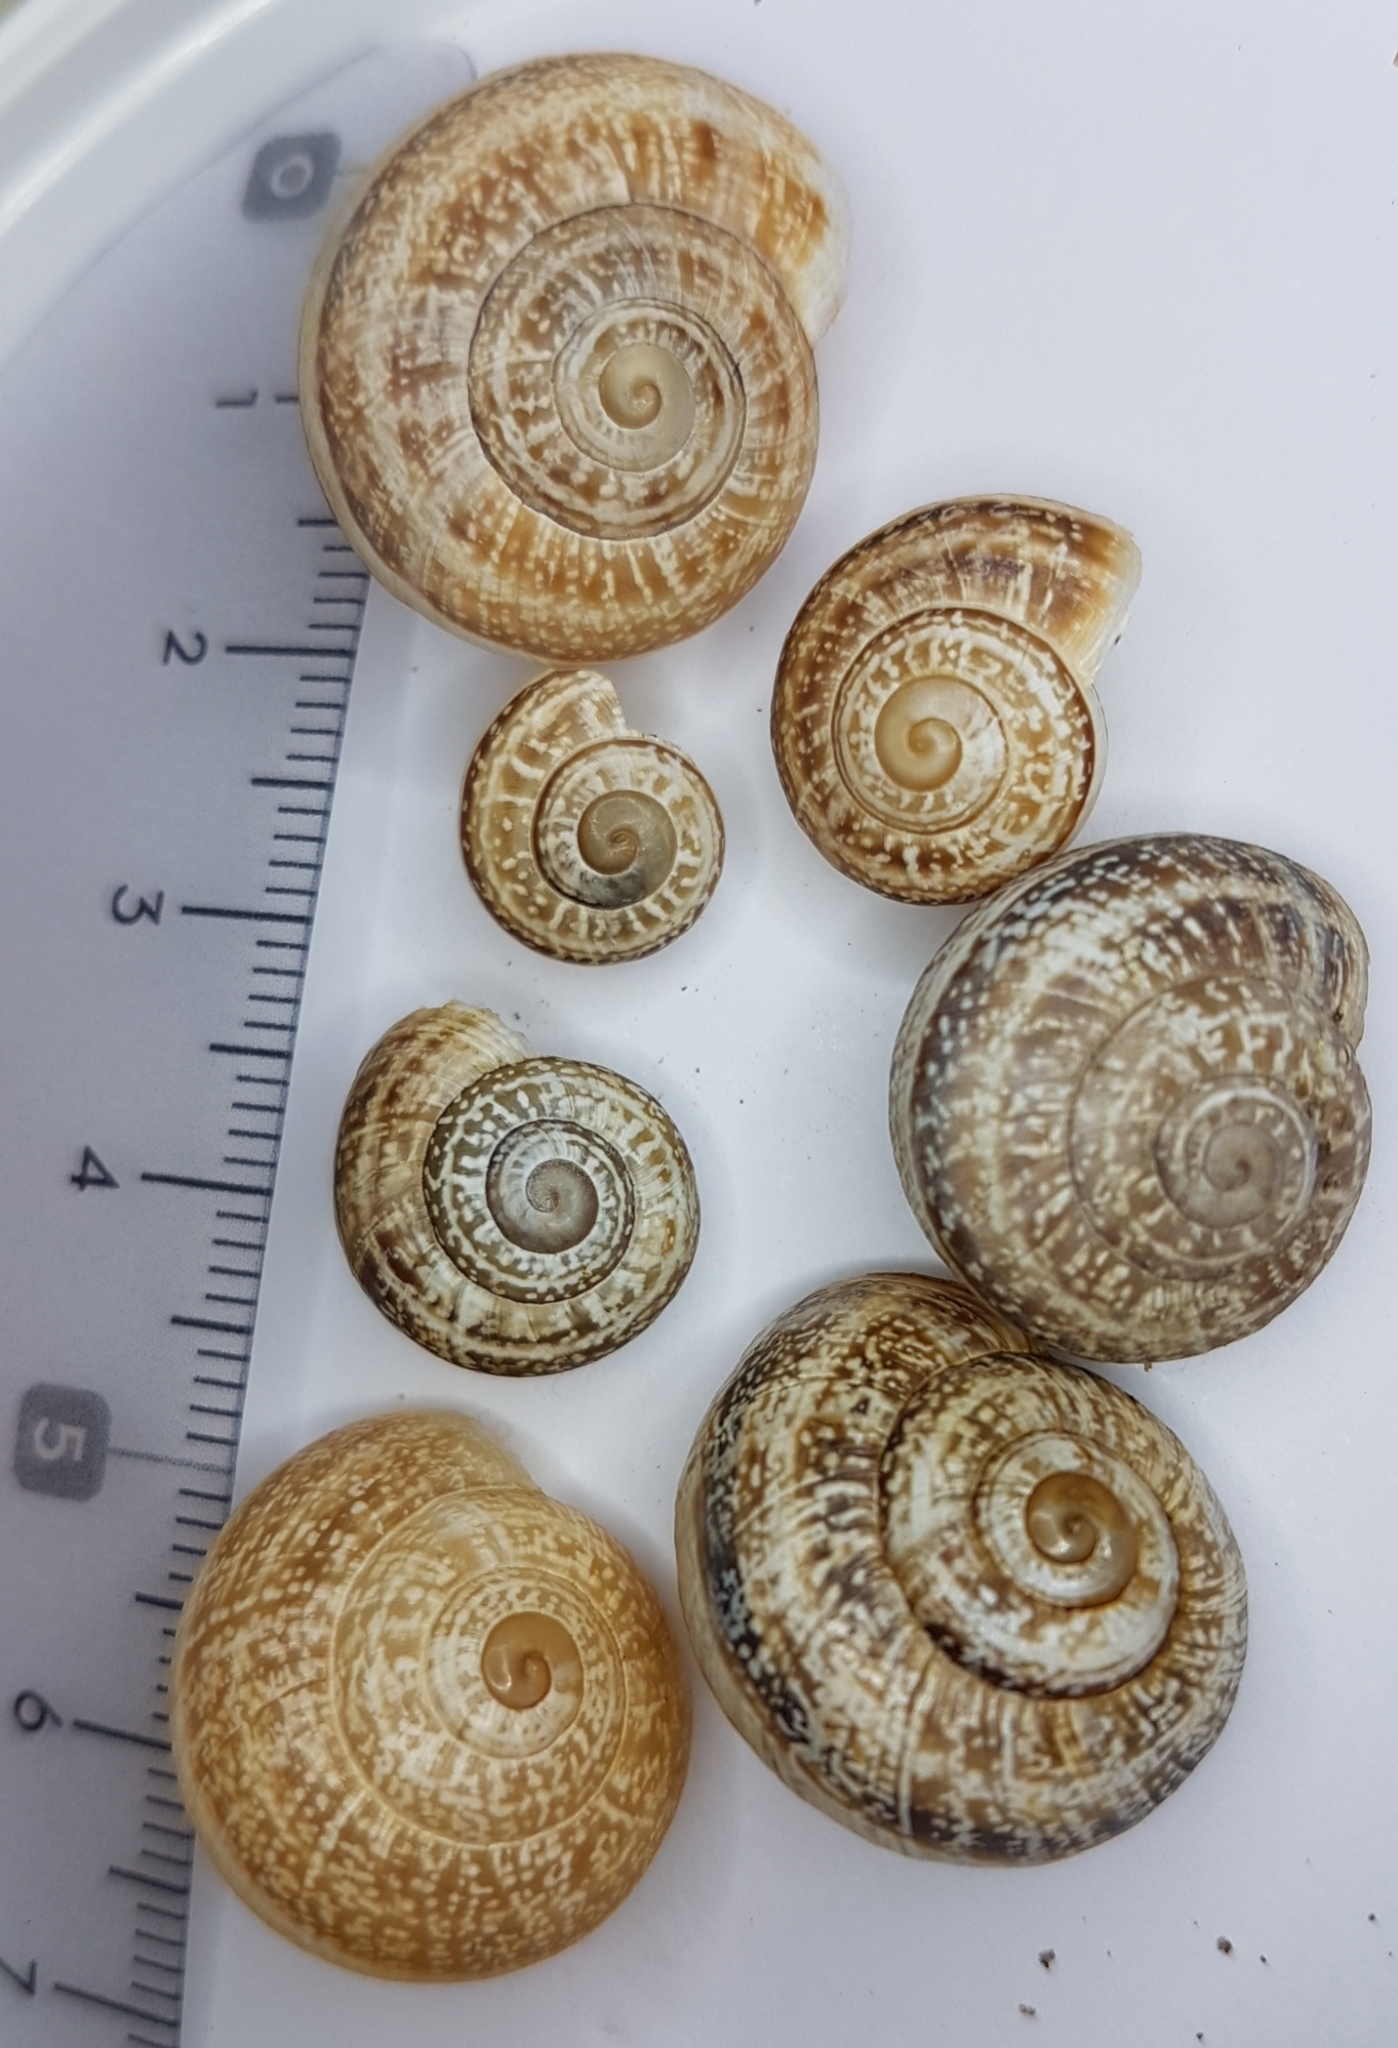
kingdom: Animalia
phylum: Mollusca
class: Gastropoda
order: Stylommatophora
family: Helicidae
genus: Otala
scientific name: Otala lactea
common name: Milk snail
